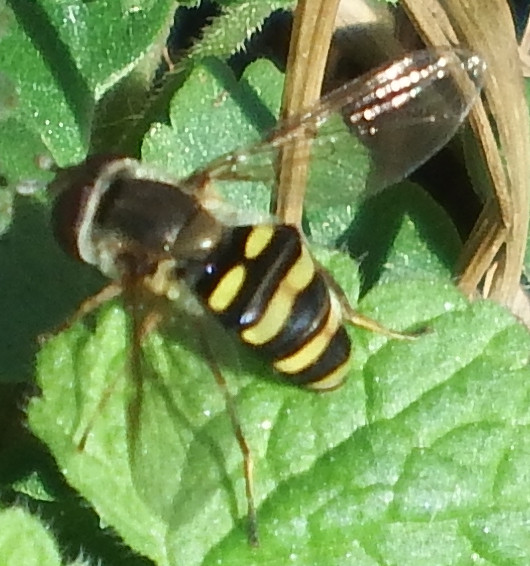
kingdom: Animalia
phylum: Arthropoda
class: Insecta
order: Diptera
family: Syrphidae
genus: Eupeodes
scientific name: Eupeodes
